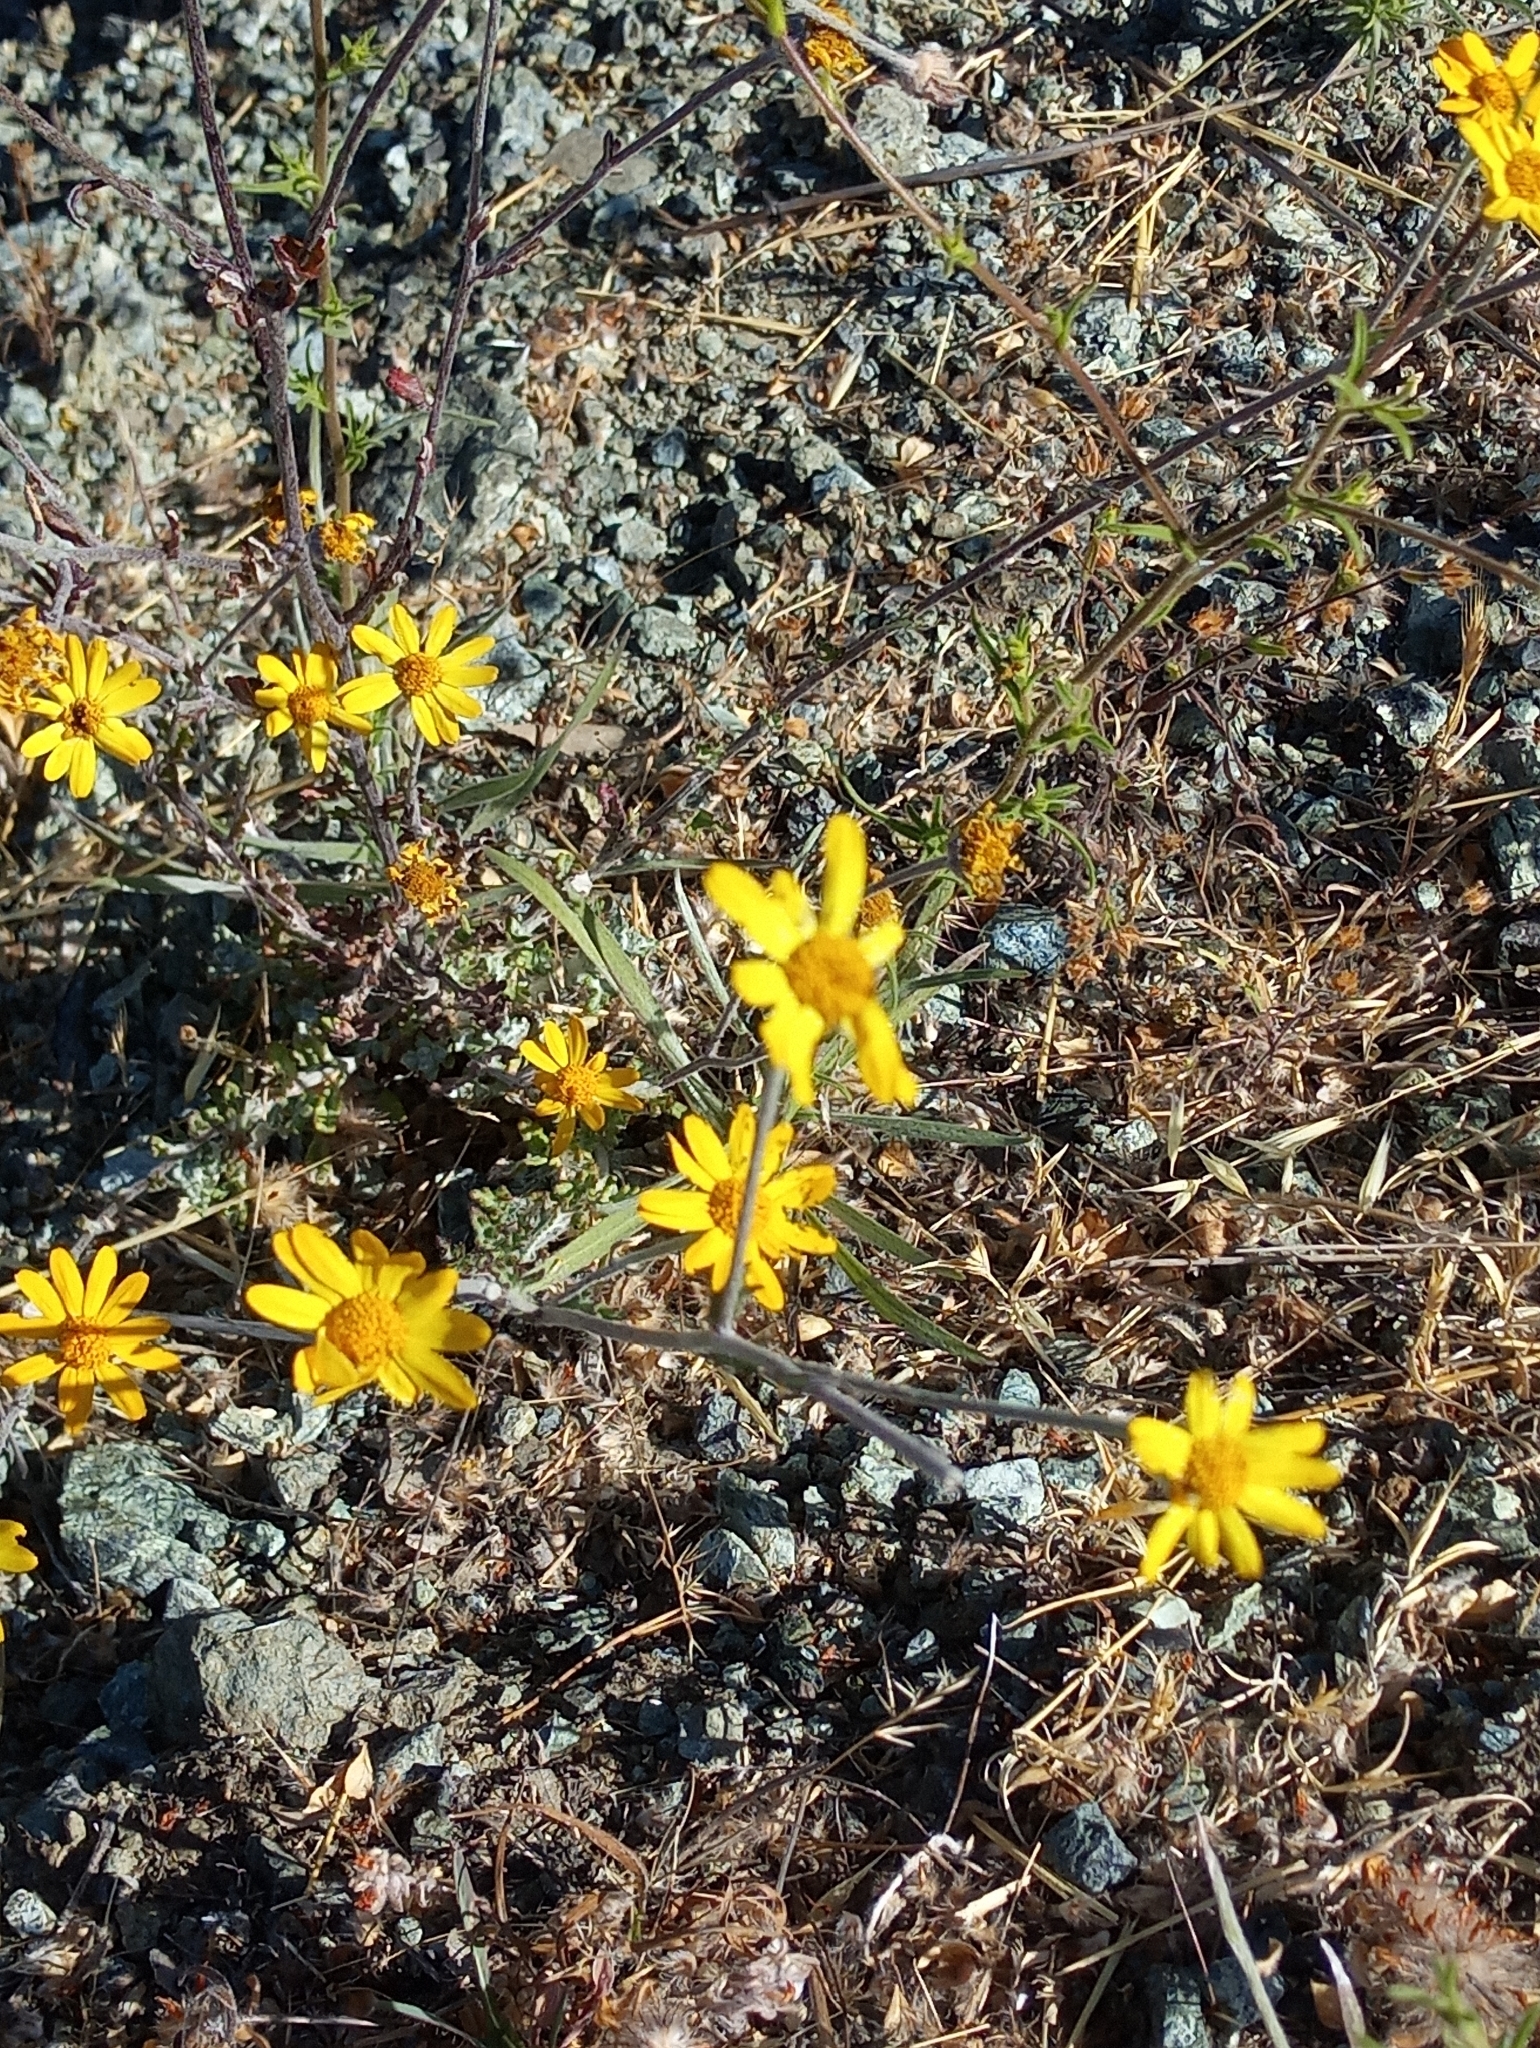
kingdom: Plantae
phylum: Tracheophyta
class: Magnoliopsida
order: Asterales
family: Asteraceae
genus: Eriophyllum
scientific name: Eriophyllum lanatum
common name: Common woolly-sunflower
